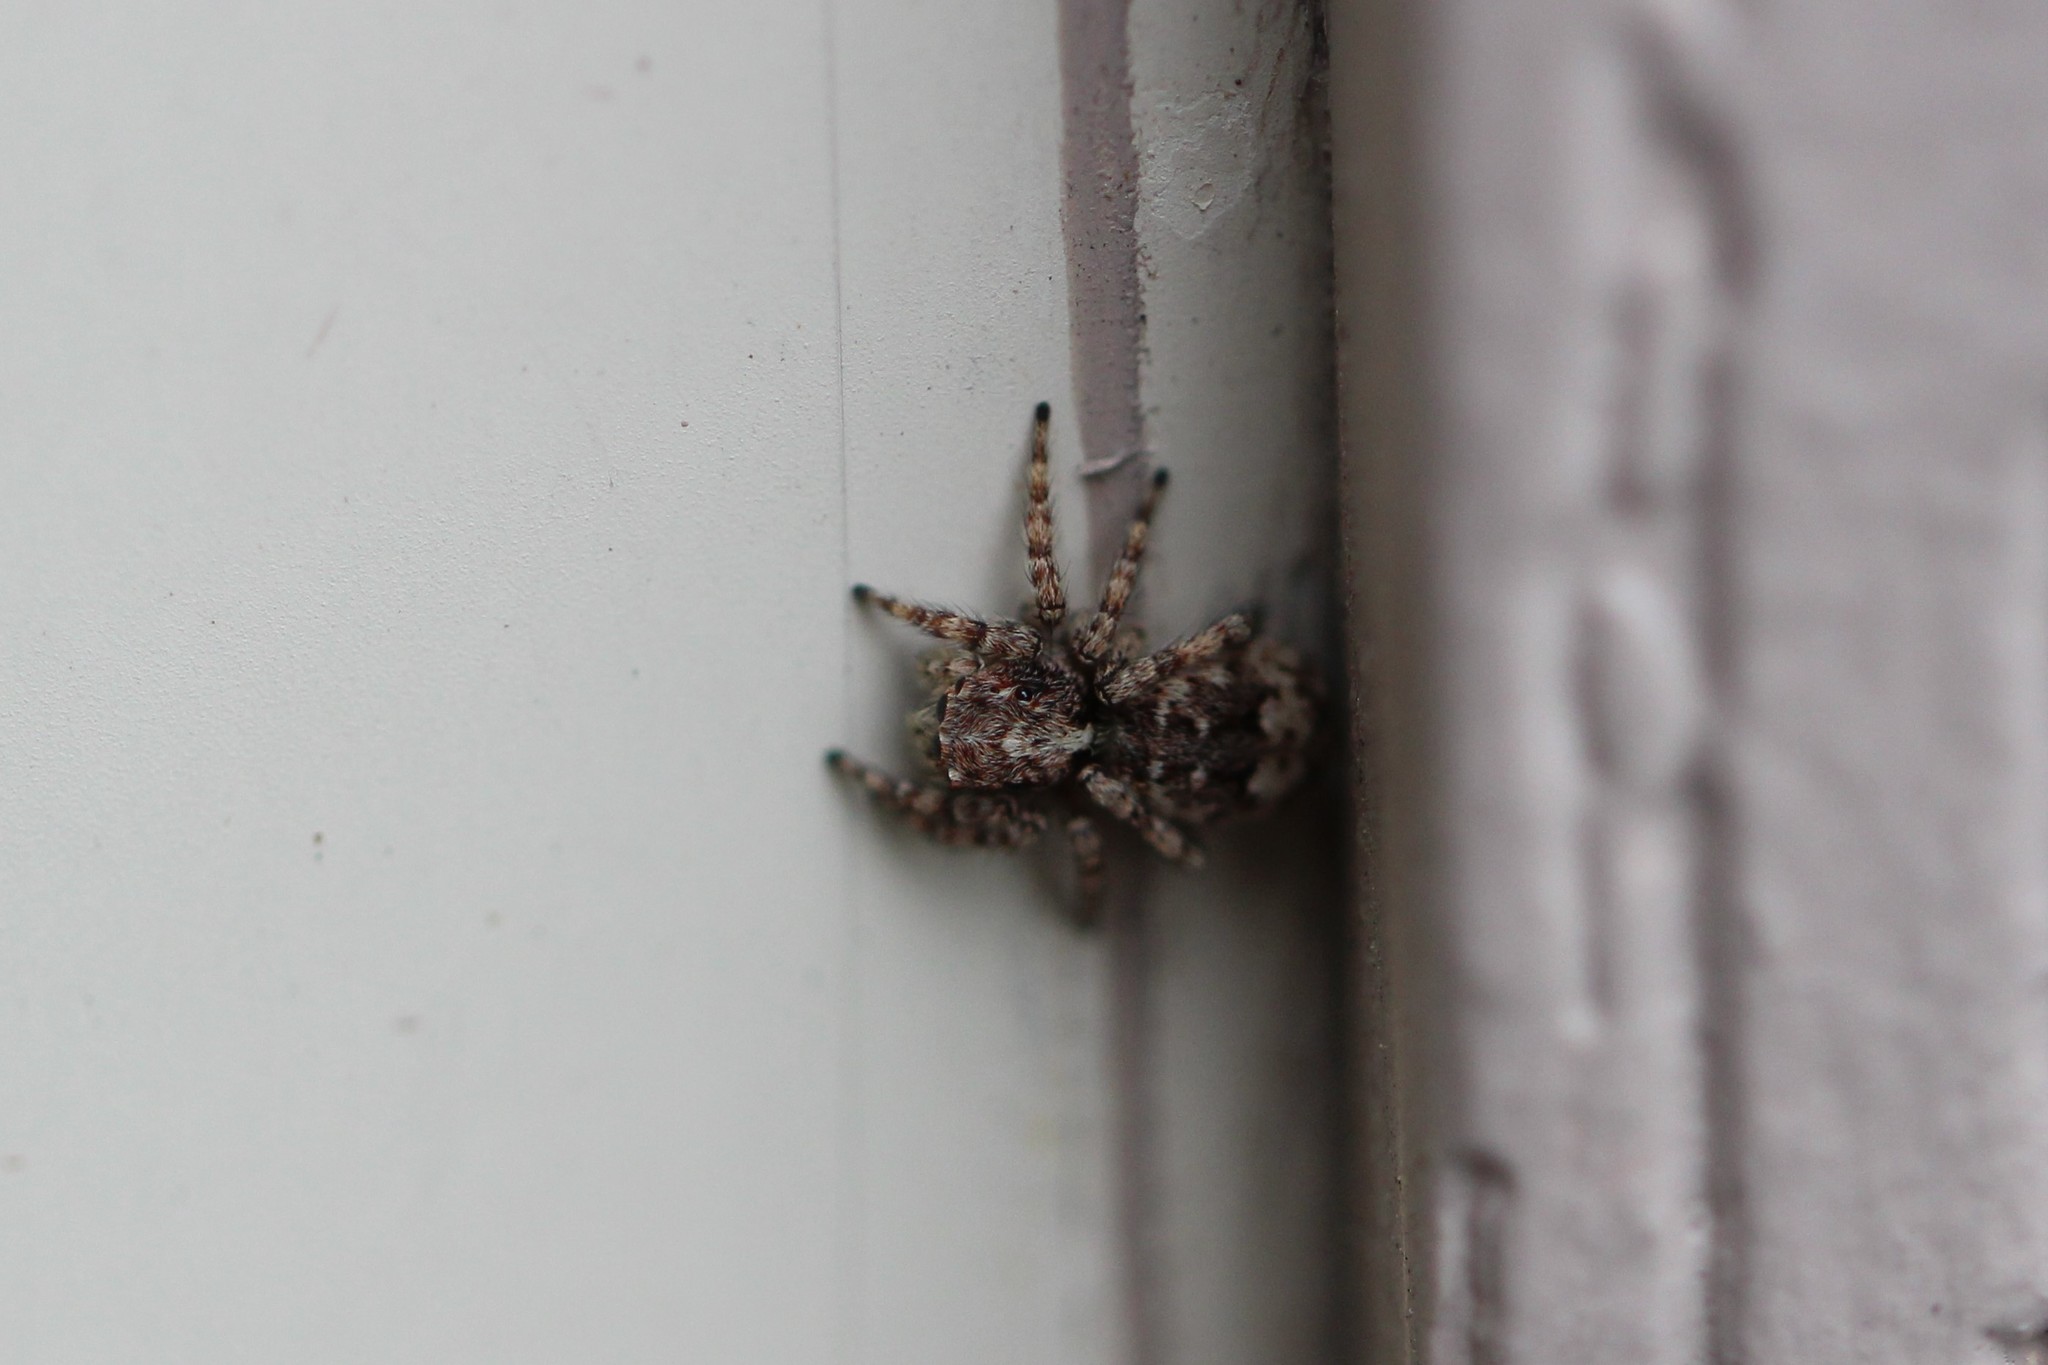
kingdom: Animalia
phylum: Arthropoda
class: Arachnida
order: Araneae
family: Salticidae
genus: Attulus
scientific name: Attulus fasciger
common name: Asiatic wall jumping spider
